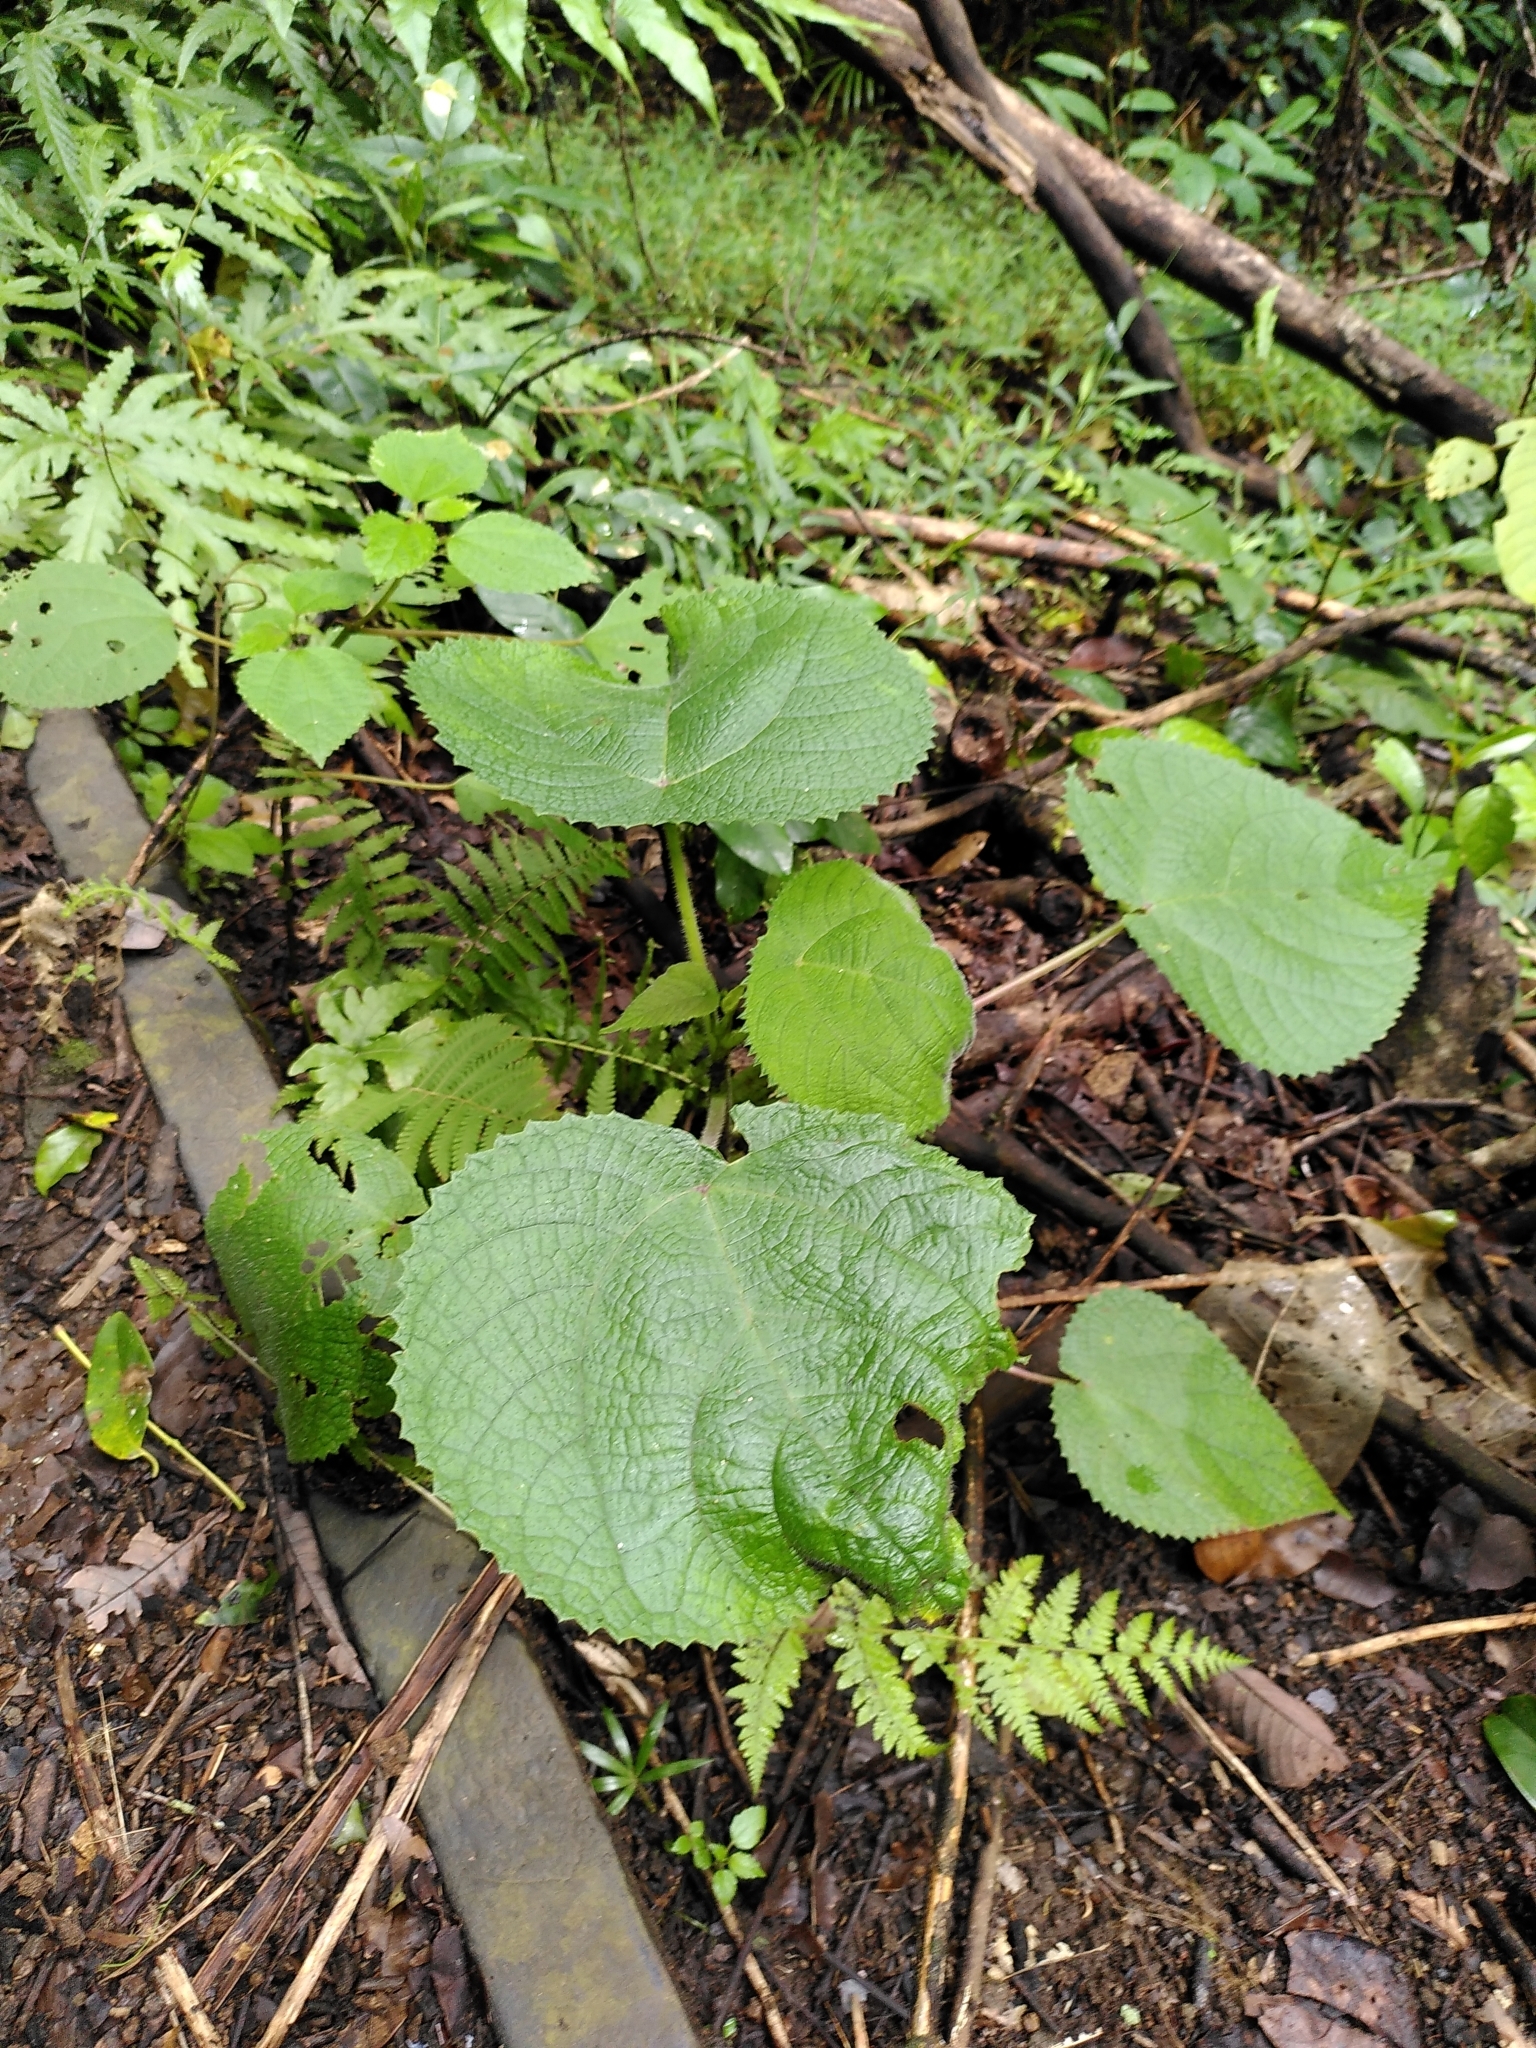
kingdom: Plantae
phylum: Tracheophyta
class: Magnoliopsida
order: Rosales
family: Urticaceae
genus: Dendrocnide
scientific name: Dendrocnide moroides
